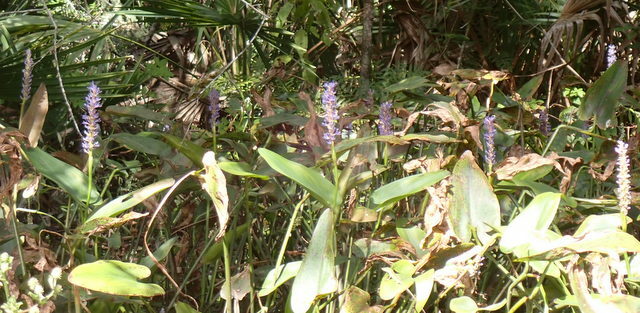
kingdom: Plantae
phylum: Tracheophyta
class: Liliopsida
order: Commelinales
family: Pontederiaceae
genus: Pontederia
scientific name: Pontederia cordata
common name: Pickerelweed
